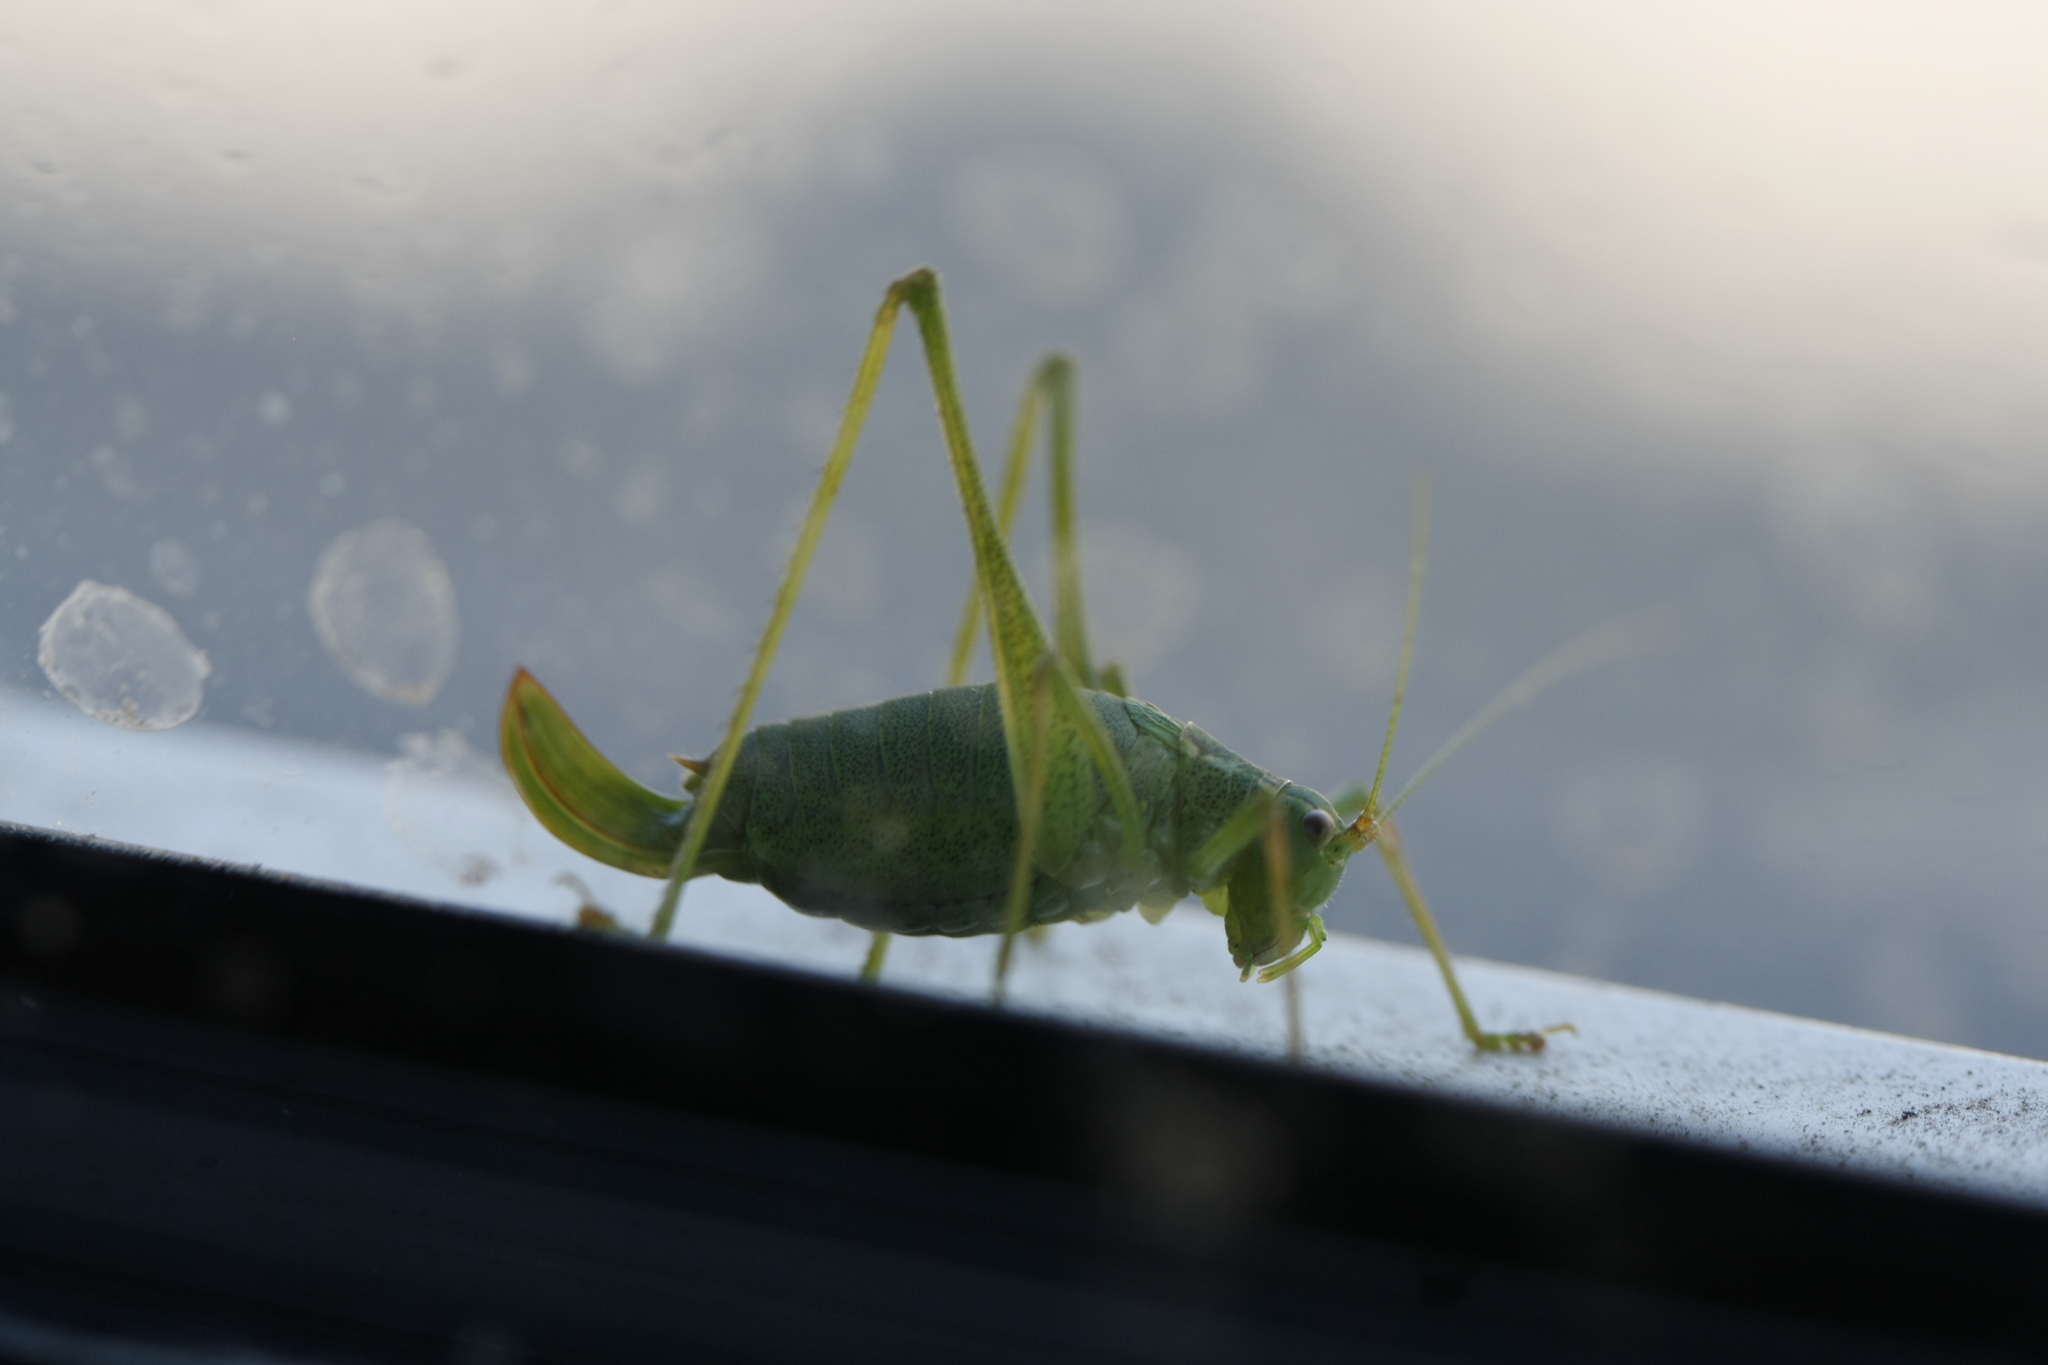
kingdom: Animalia
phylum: Arthropoda
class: Insecta
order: Orthoptera
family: Tettigoniidae
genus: Leptophyes
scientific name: Leptophyes punctatissima
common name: Speckled bush-cricket
